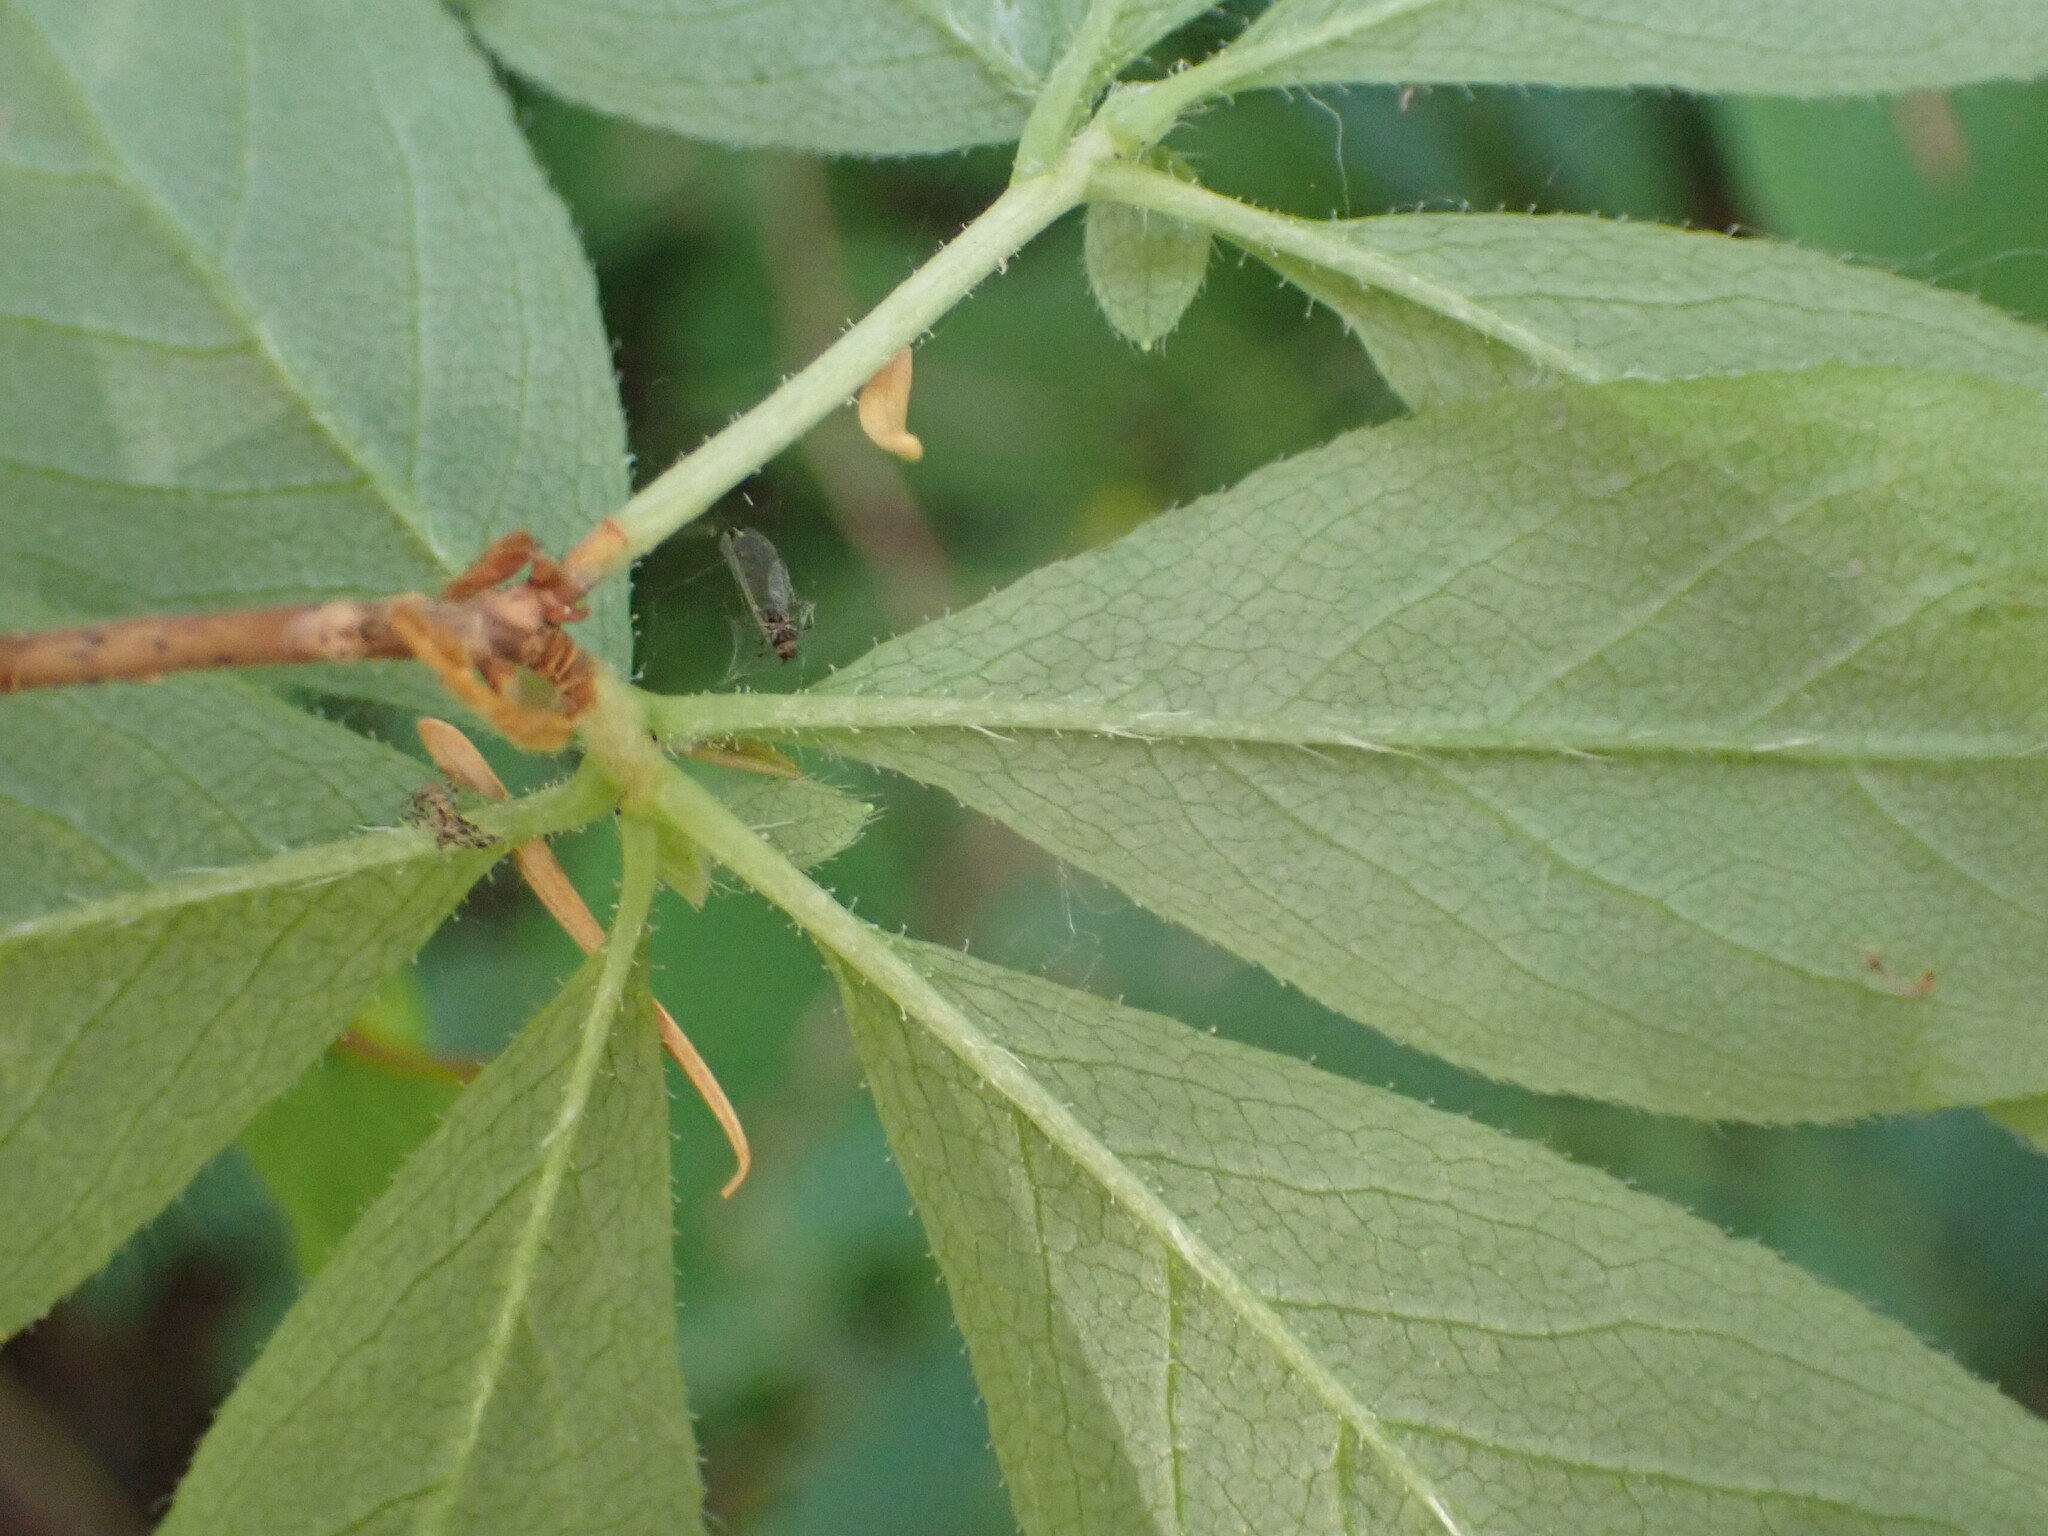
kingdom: Plantae
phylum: Tracheophyta
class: Magnoliopsida
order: Ericales
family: Ericaceae
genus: Rhododendron
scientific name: Rhododendron menziesii
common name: Pacific menziesia
